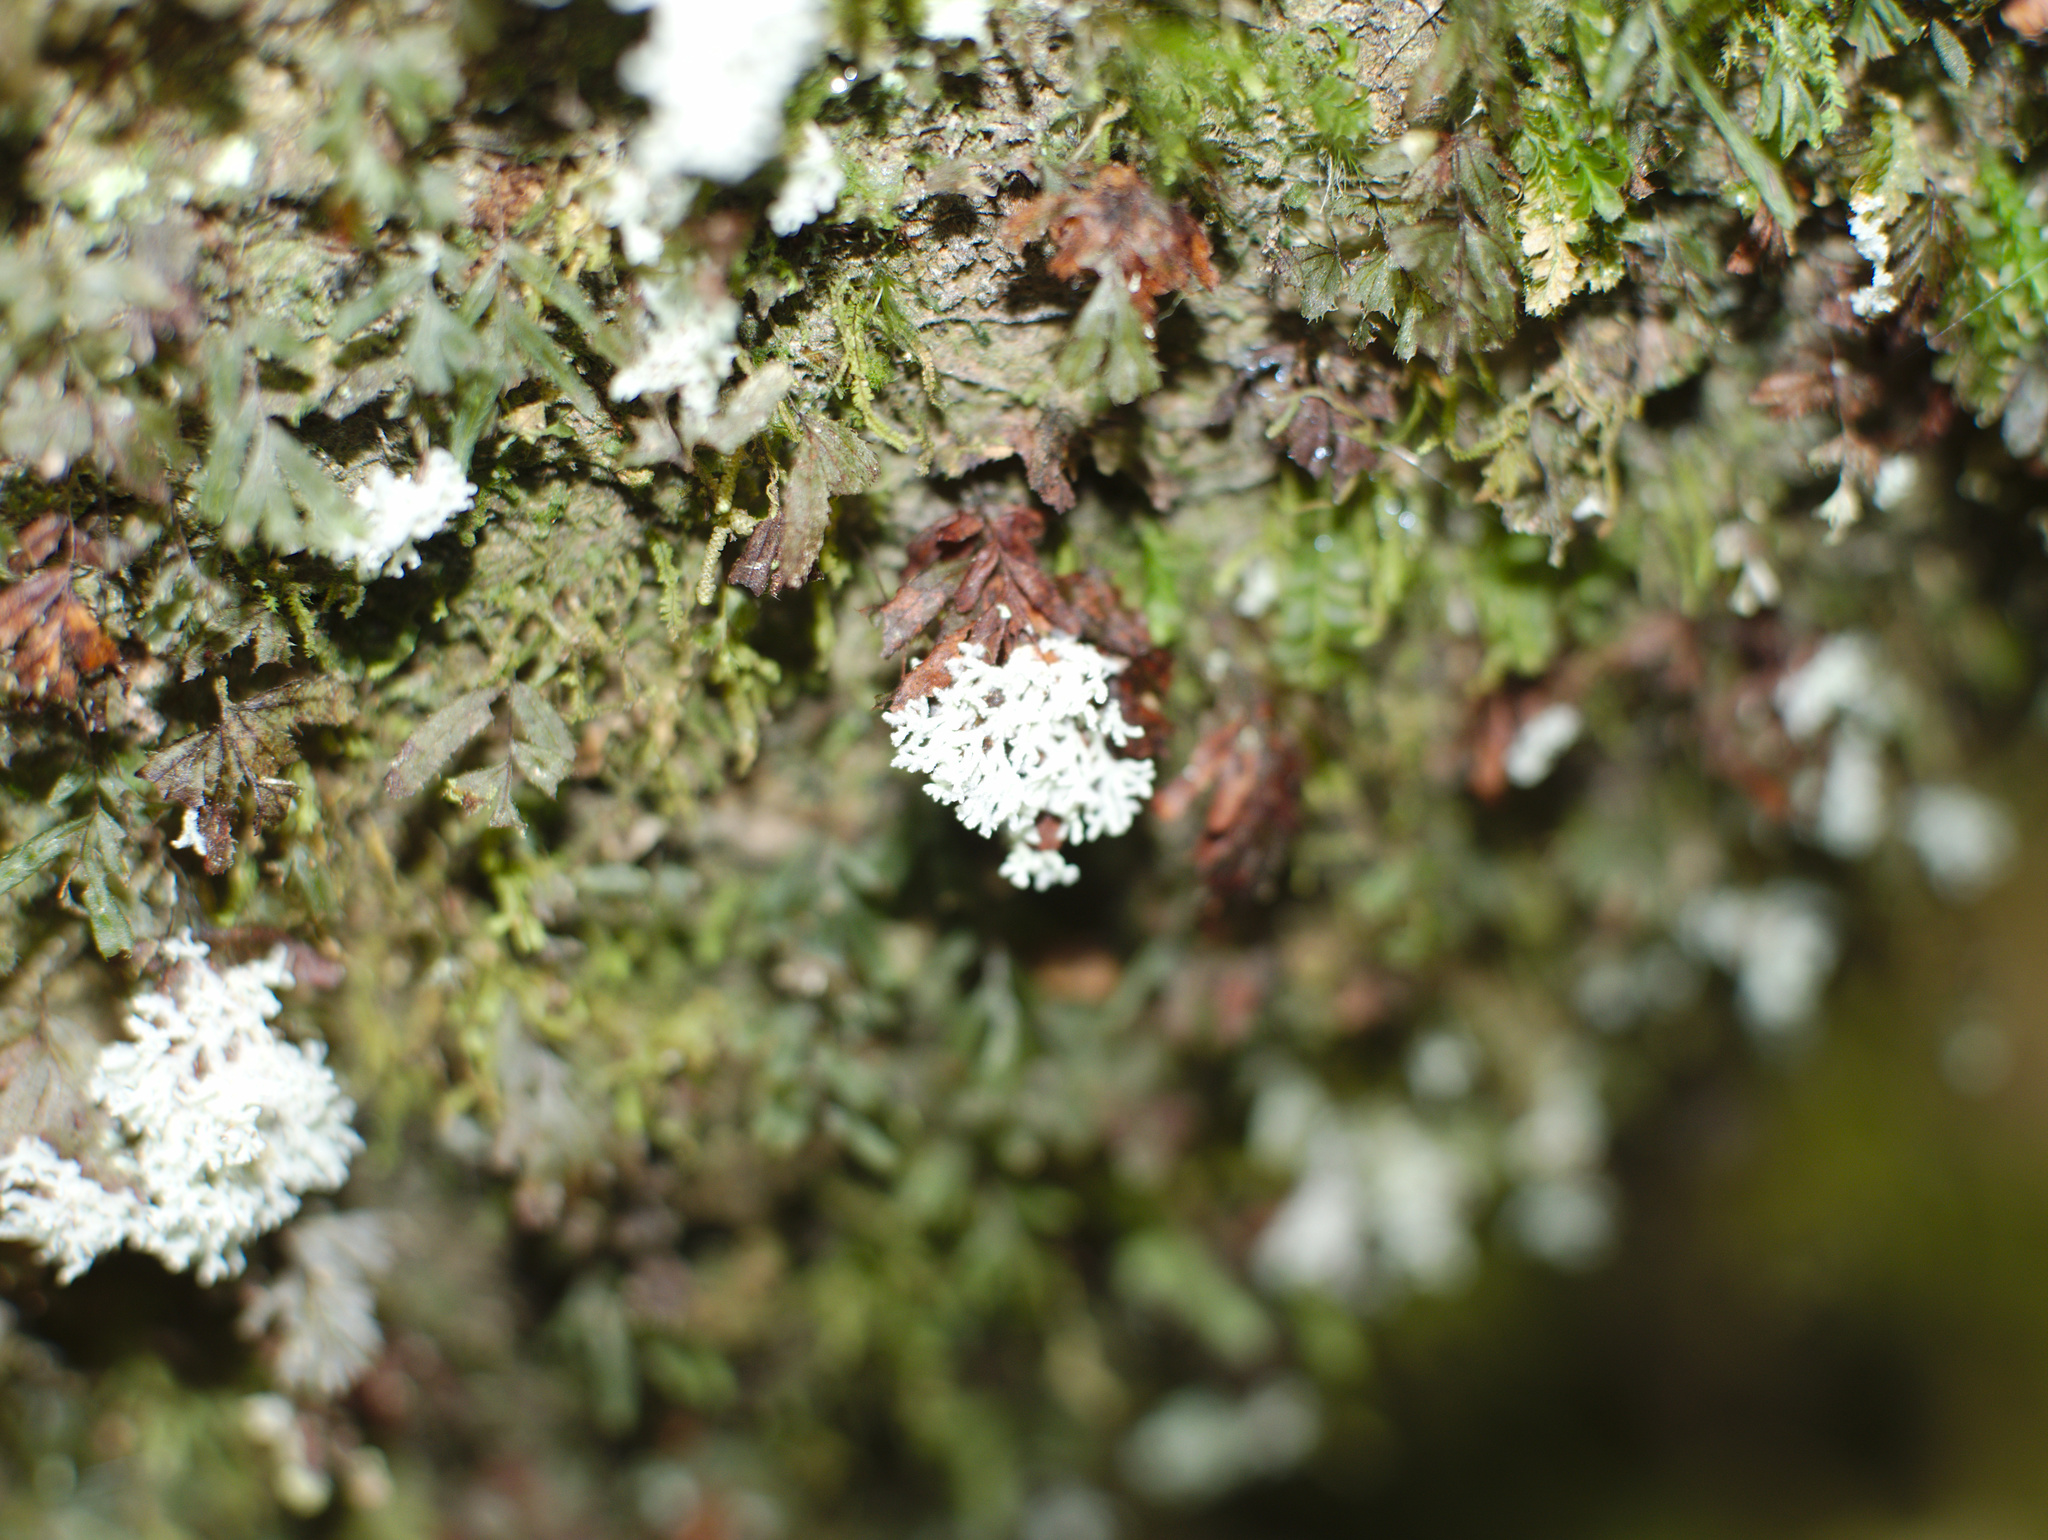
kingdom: Fungi
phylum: Ascomycota
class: Lecanoromycetes
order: Lecanorales
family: Byssolomataceae
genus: Roccellinastrum
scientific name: Roccellinastrum neglectum
